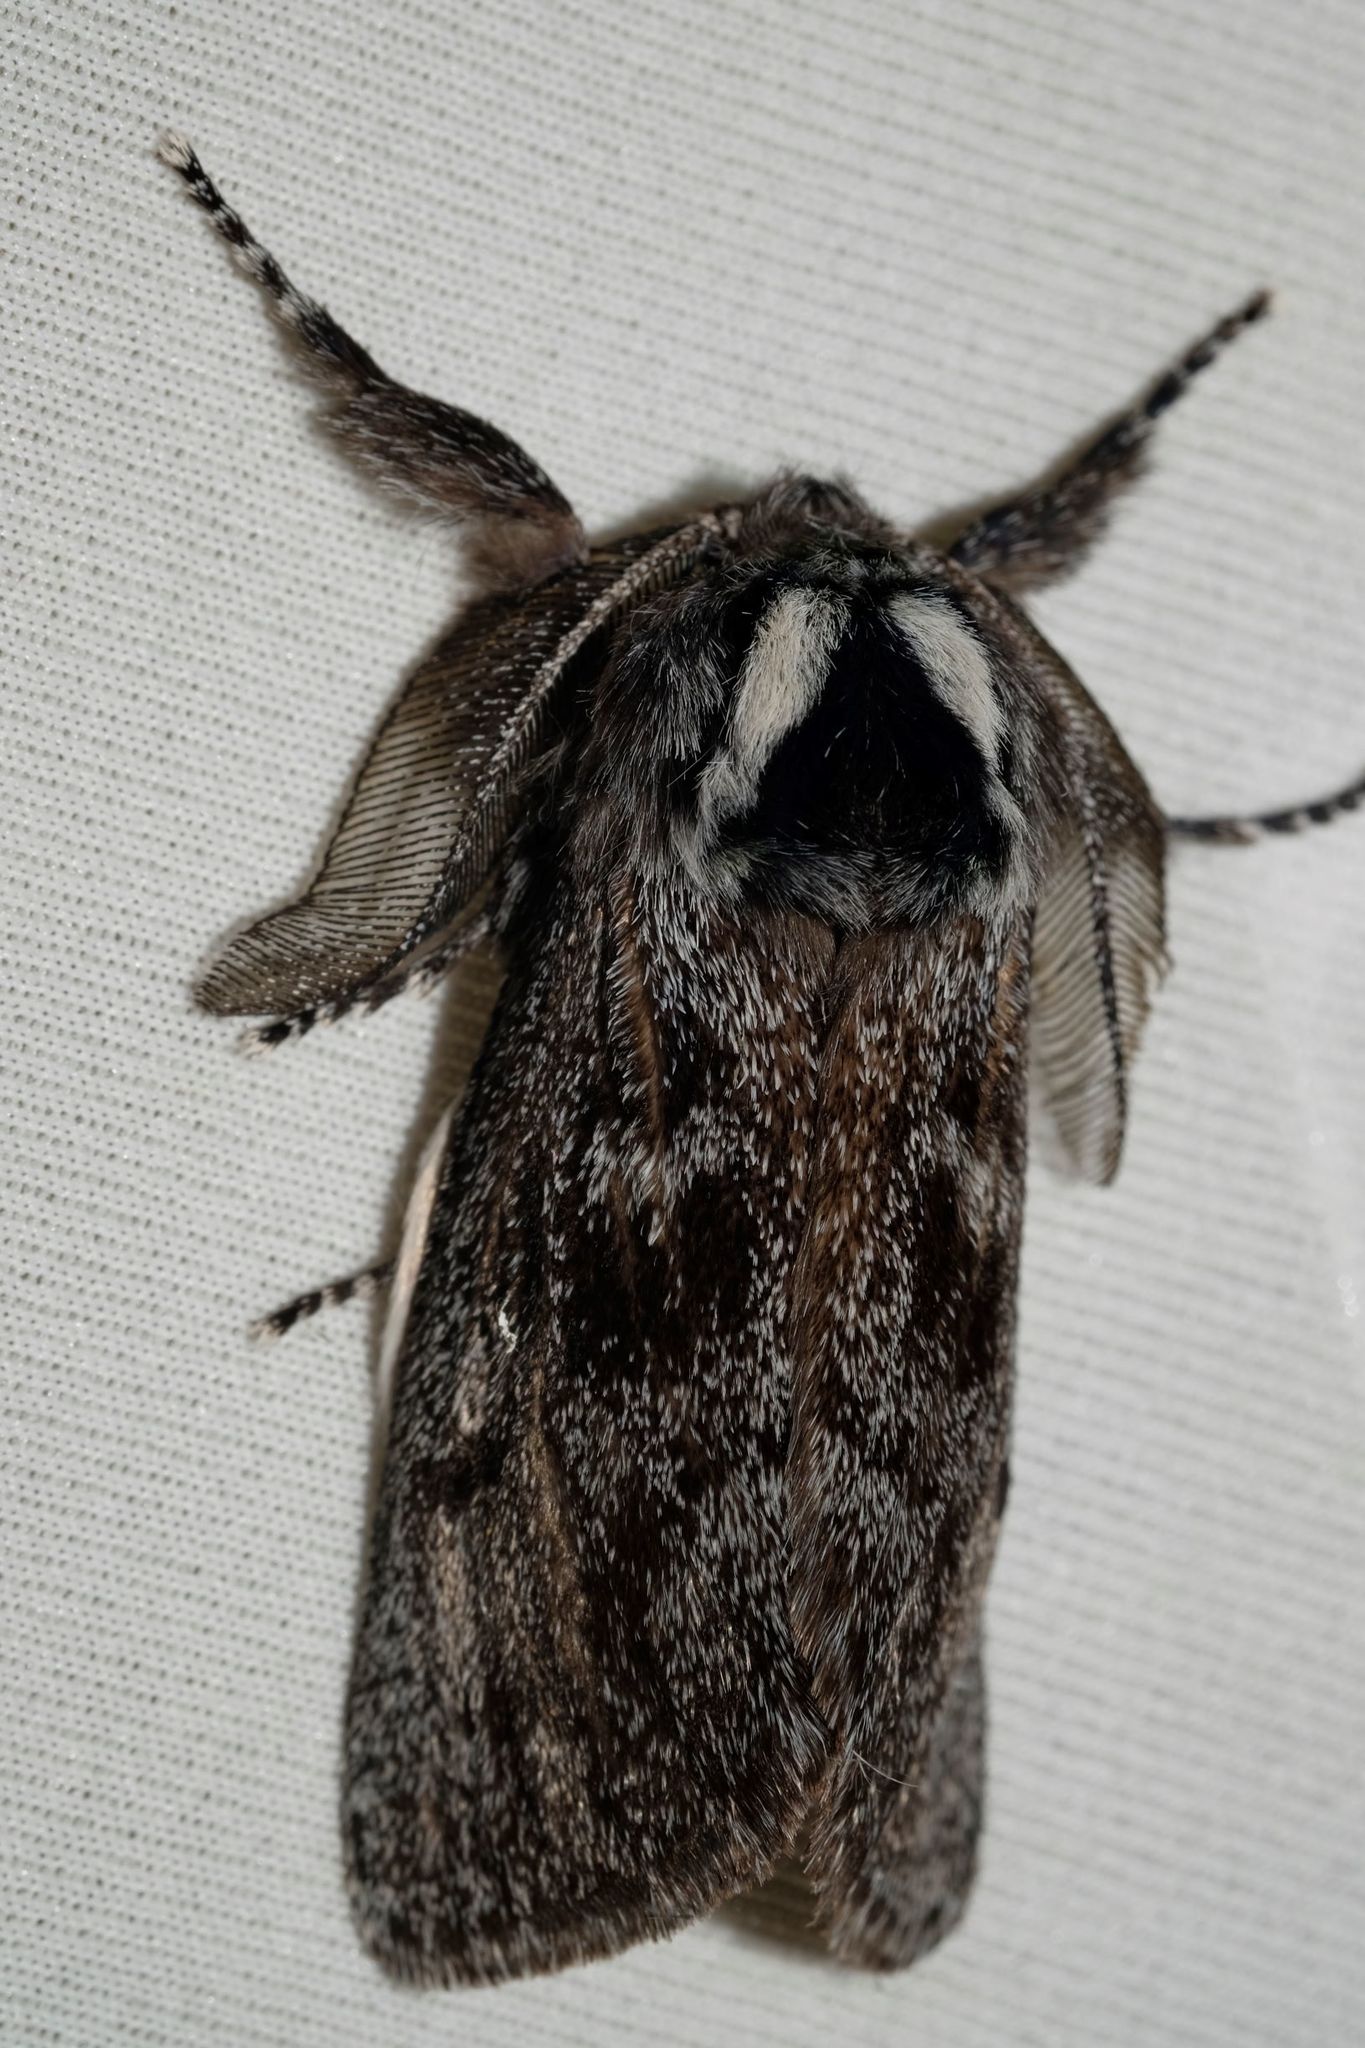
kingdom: Animalia
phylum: Arthropoda
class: Insecta
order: Lepidoptera
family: Cossidae
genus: Ptilomacra
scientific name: Ptilomacra senex
